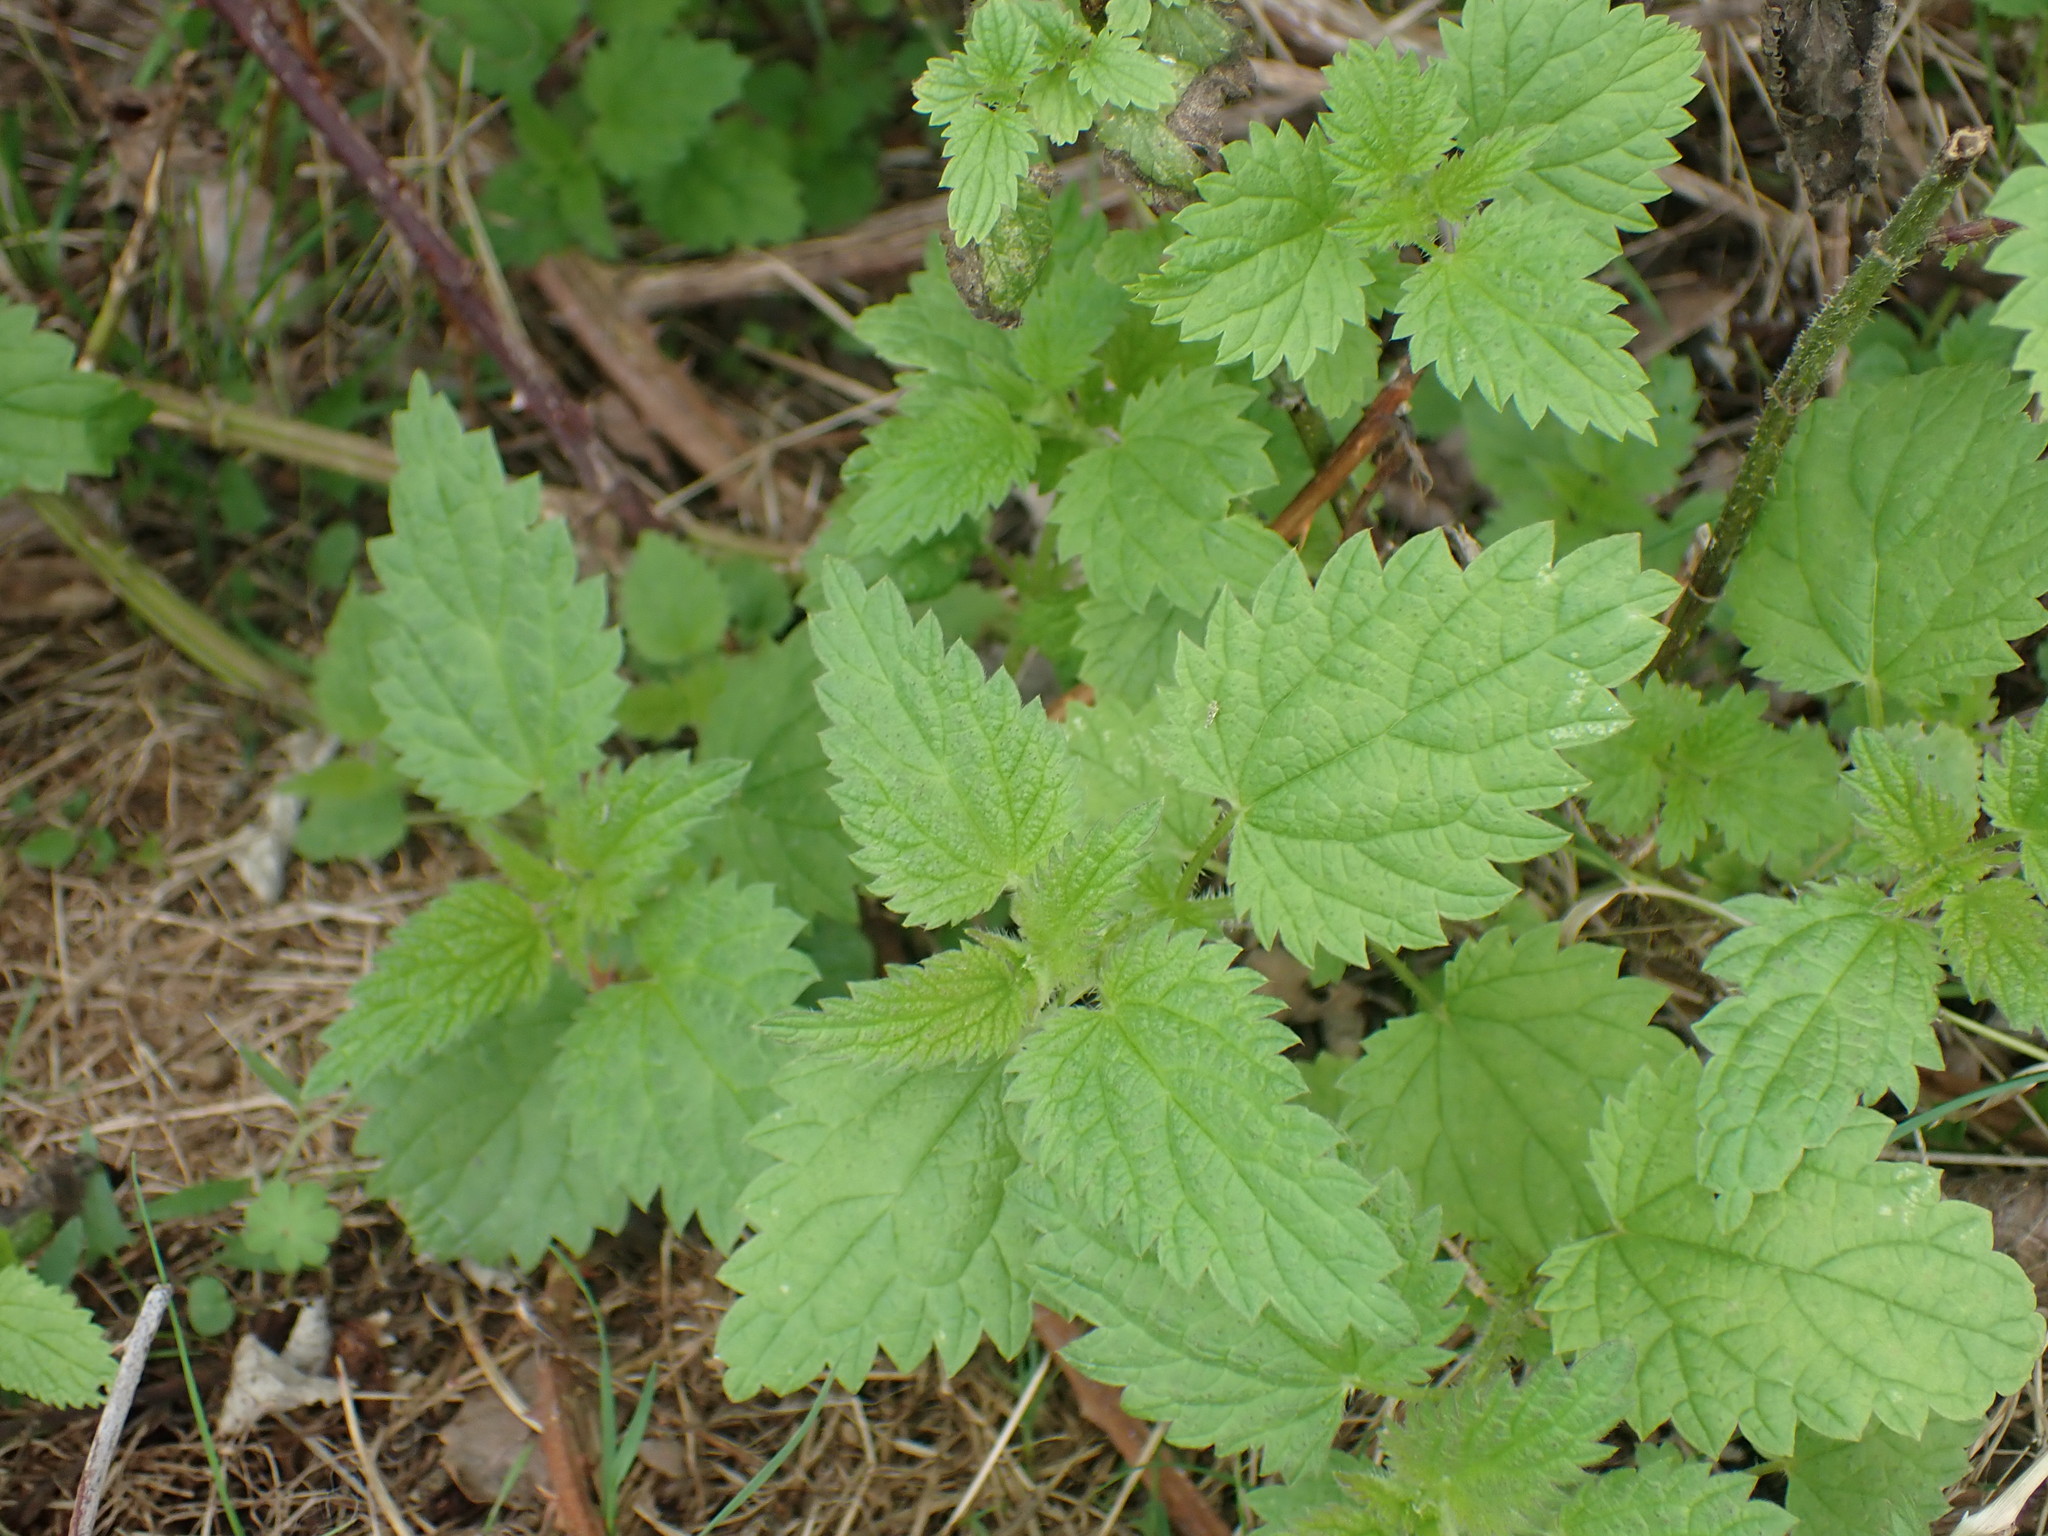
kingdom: Plantae
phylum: Tracheophyta
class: Magnoliopsida
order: Rosales
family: Urticaceae
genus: Urtica
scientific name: Urtica dioica
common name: Common nettle
